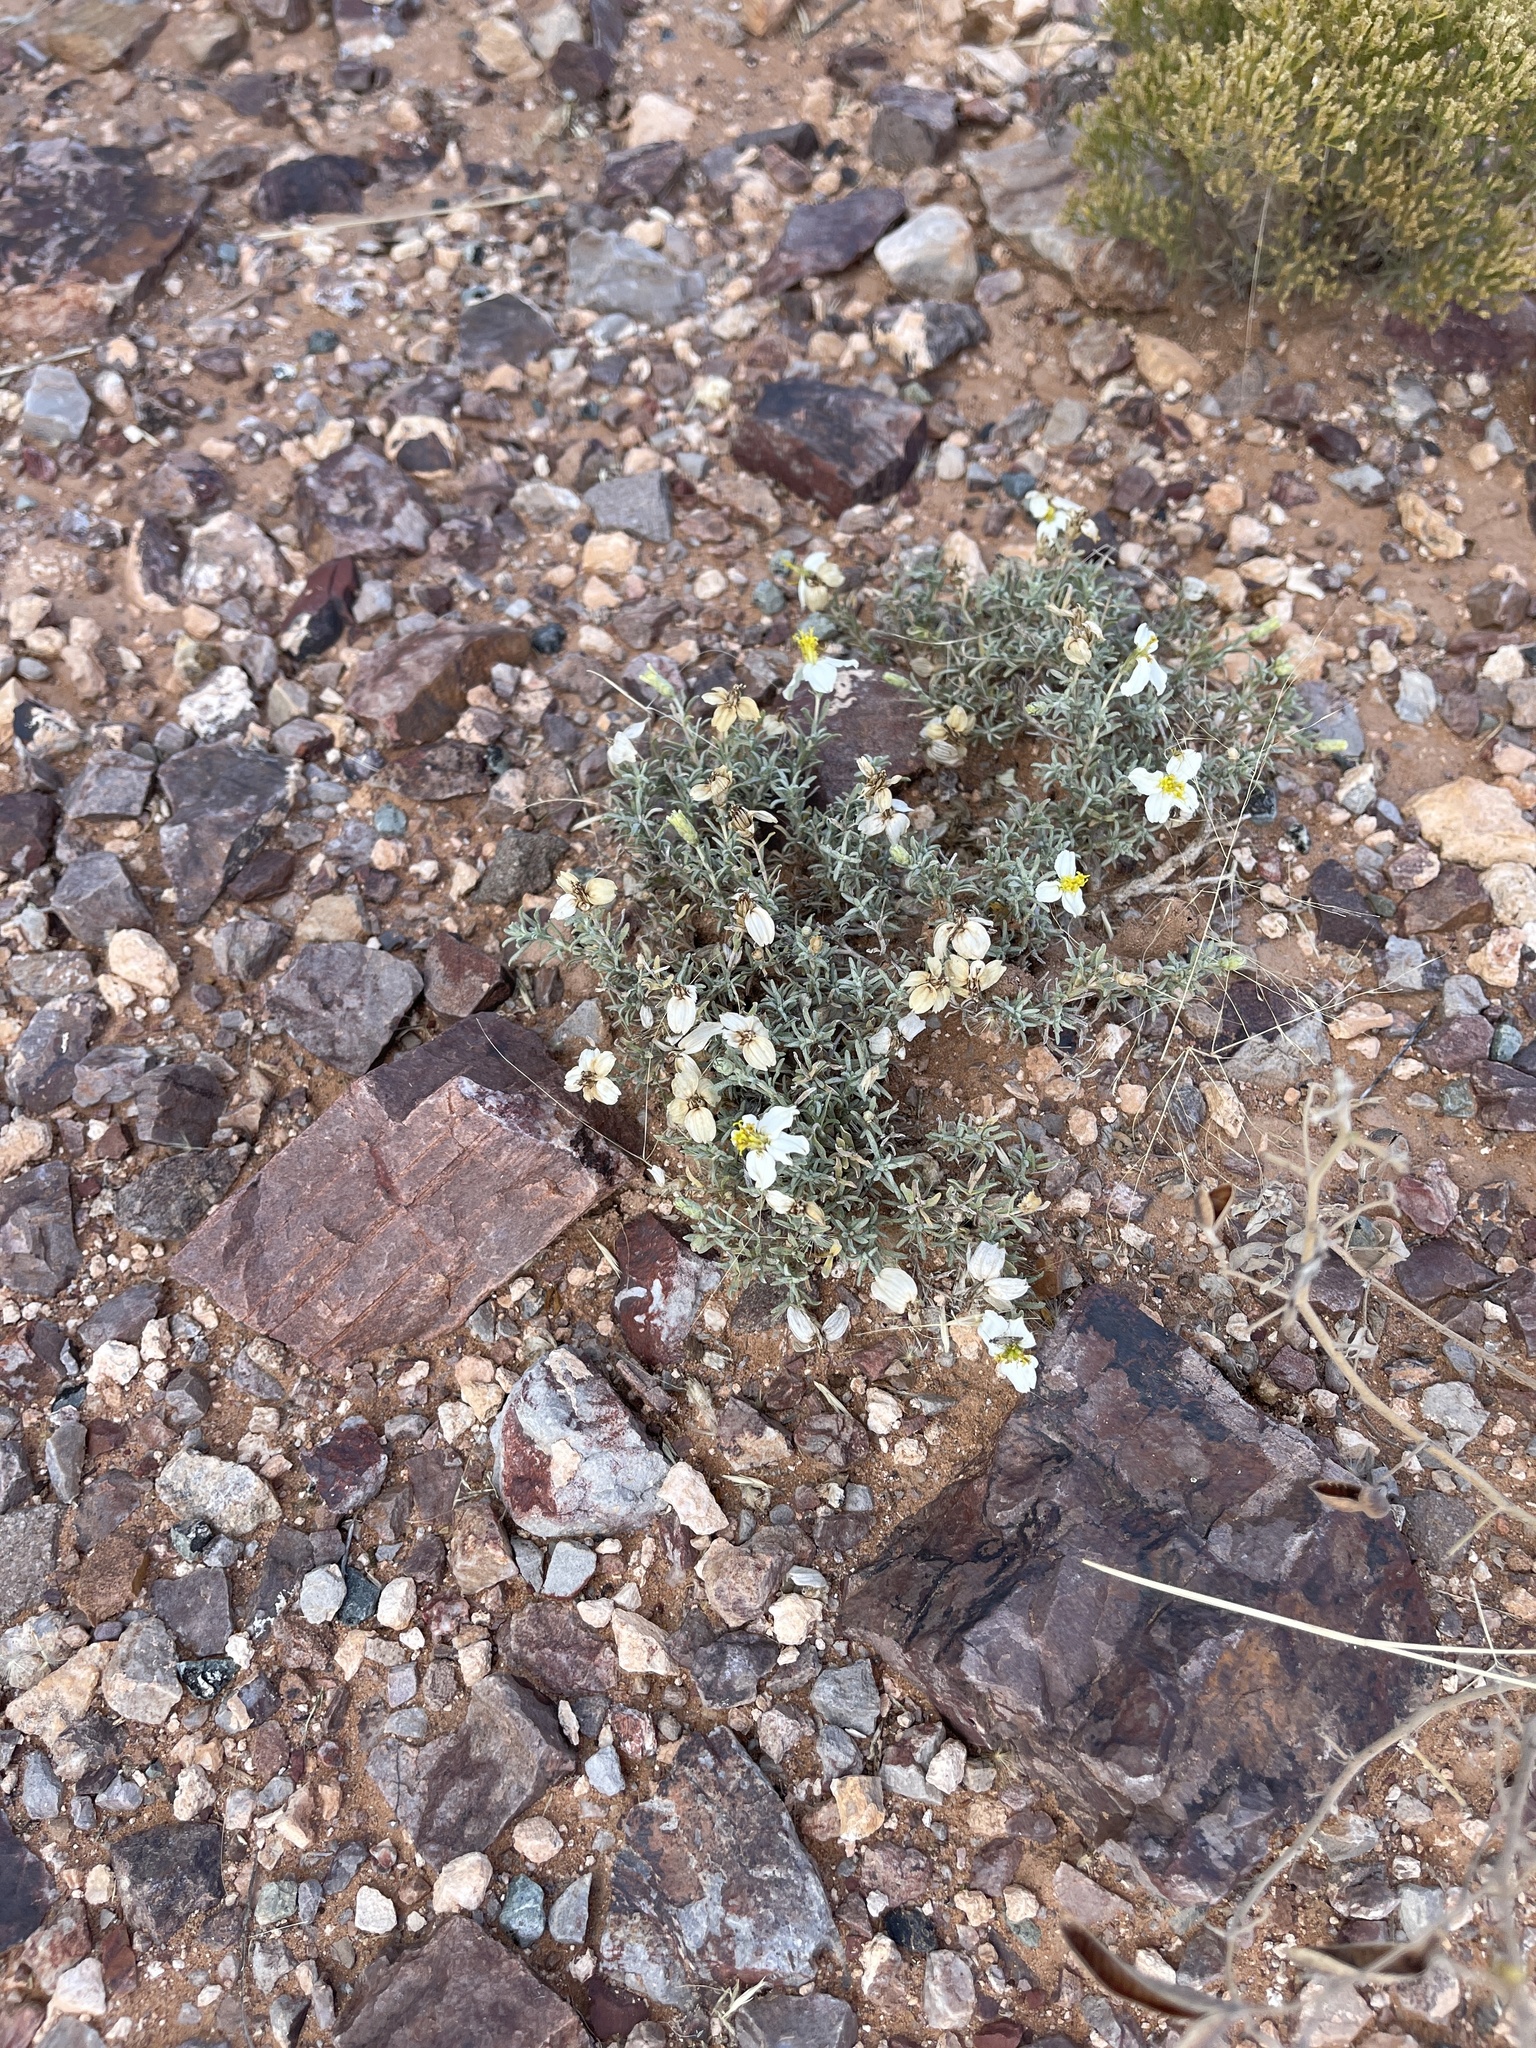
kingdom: Plantae
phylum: Tracheophyta
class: Magnoliopsida
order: Asterales
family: Asteraceae
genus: Zinnia
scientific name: Zinnia acerosa
